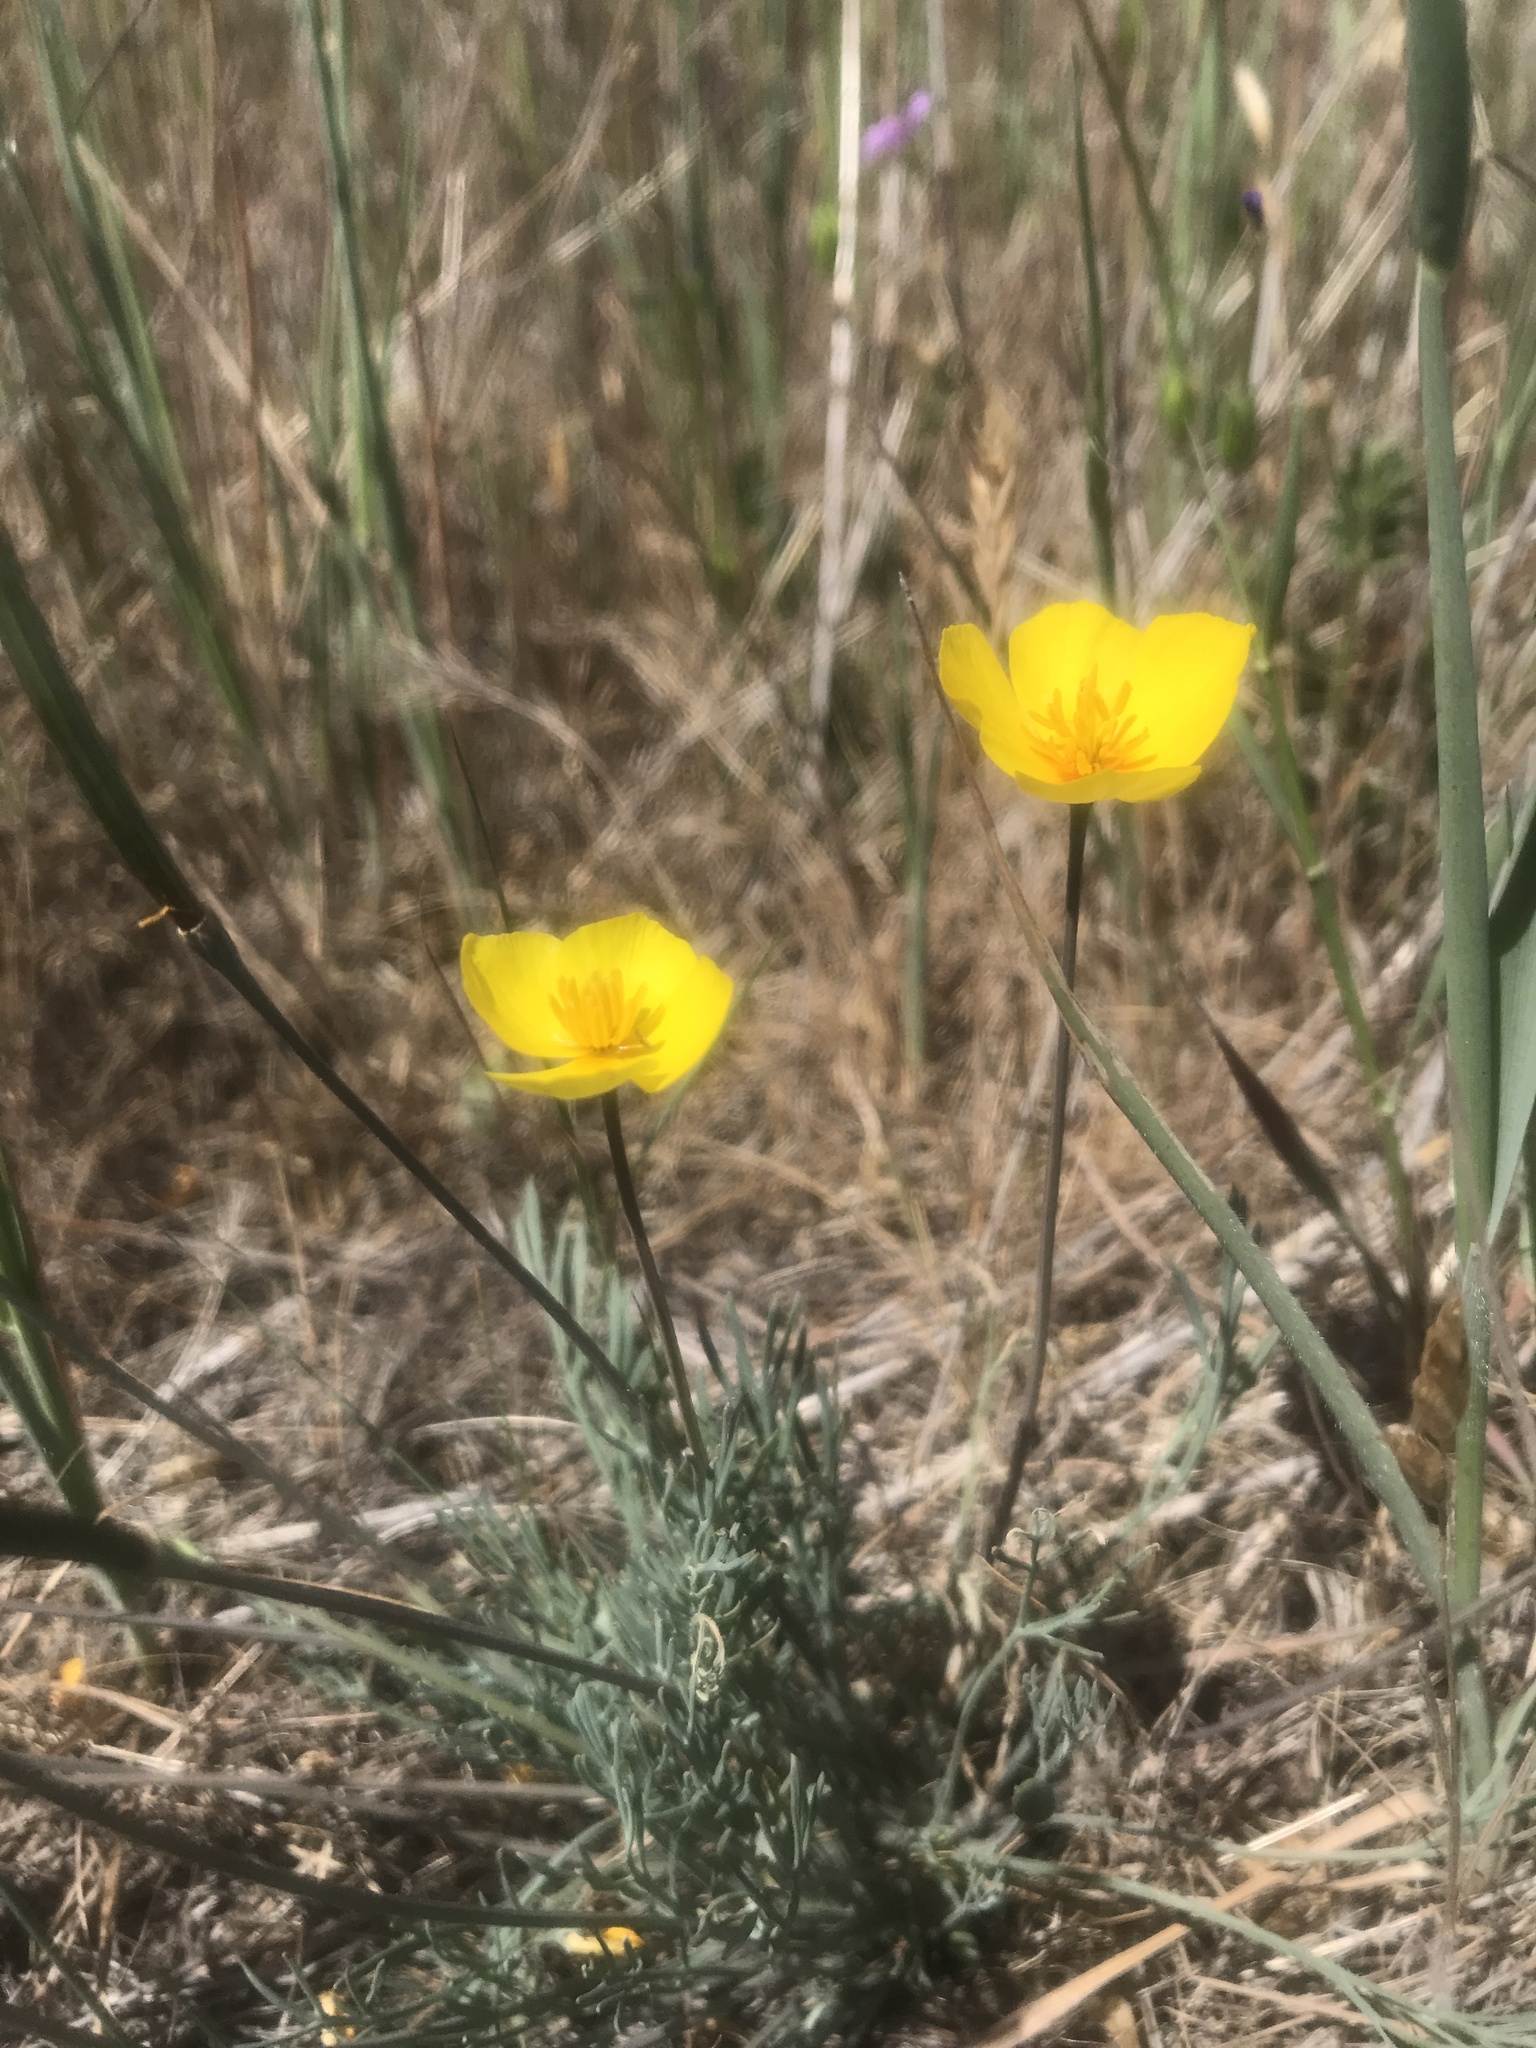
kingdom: Plantae
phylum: Tracheophyta
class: Magnoliopsida
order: Ranunculales
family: Papaveraceae
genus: Eschscholzia
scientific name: Eschscholzia lobbii
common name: Frying-pans
